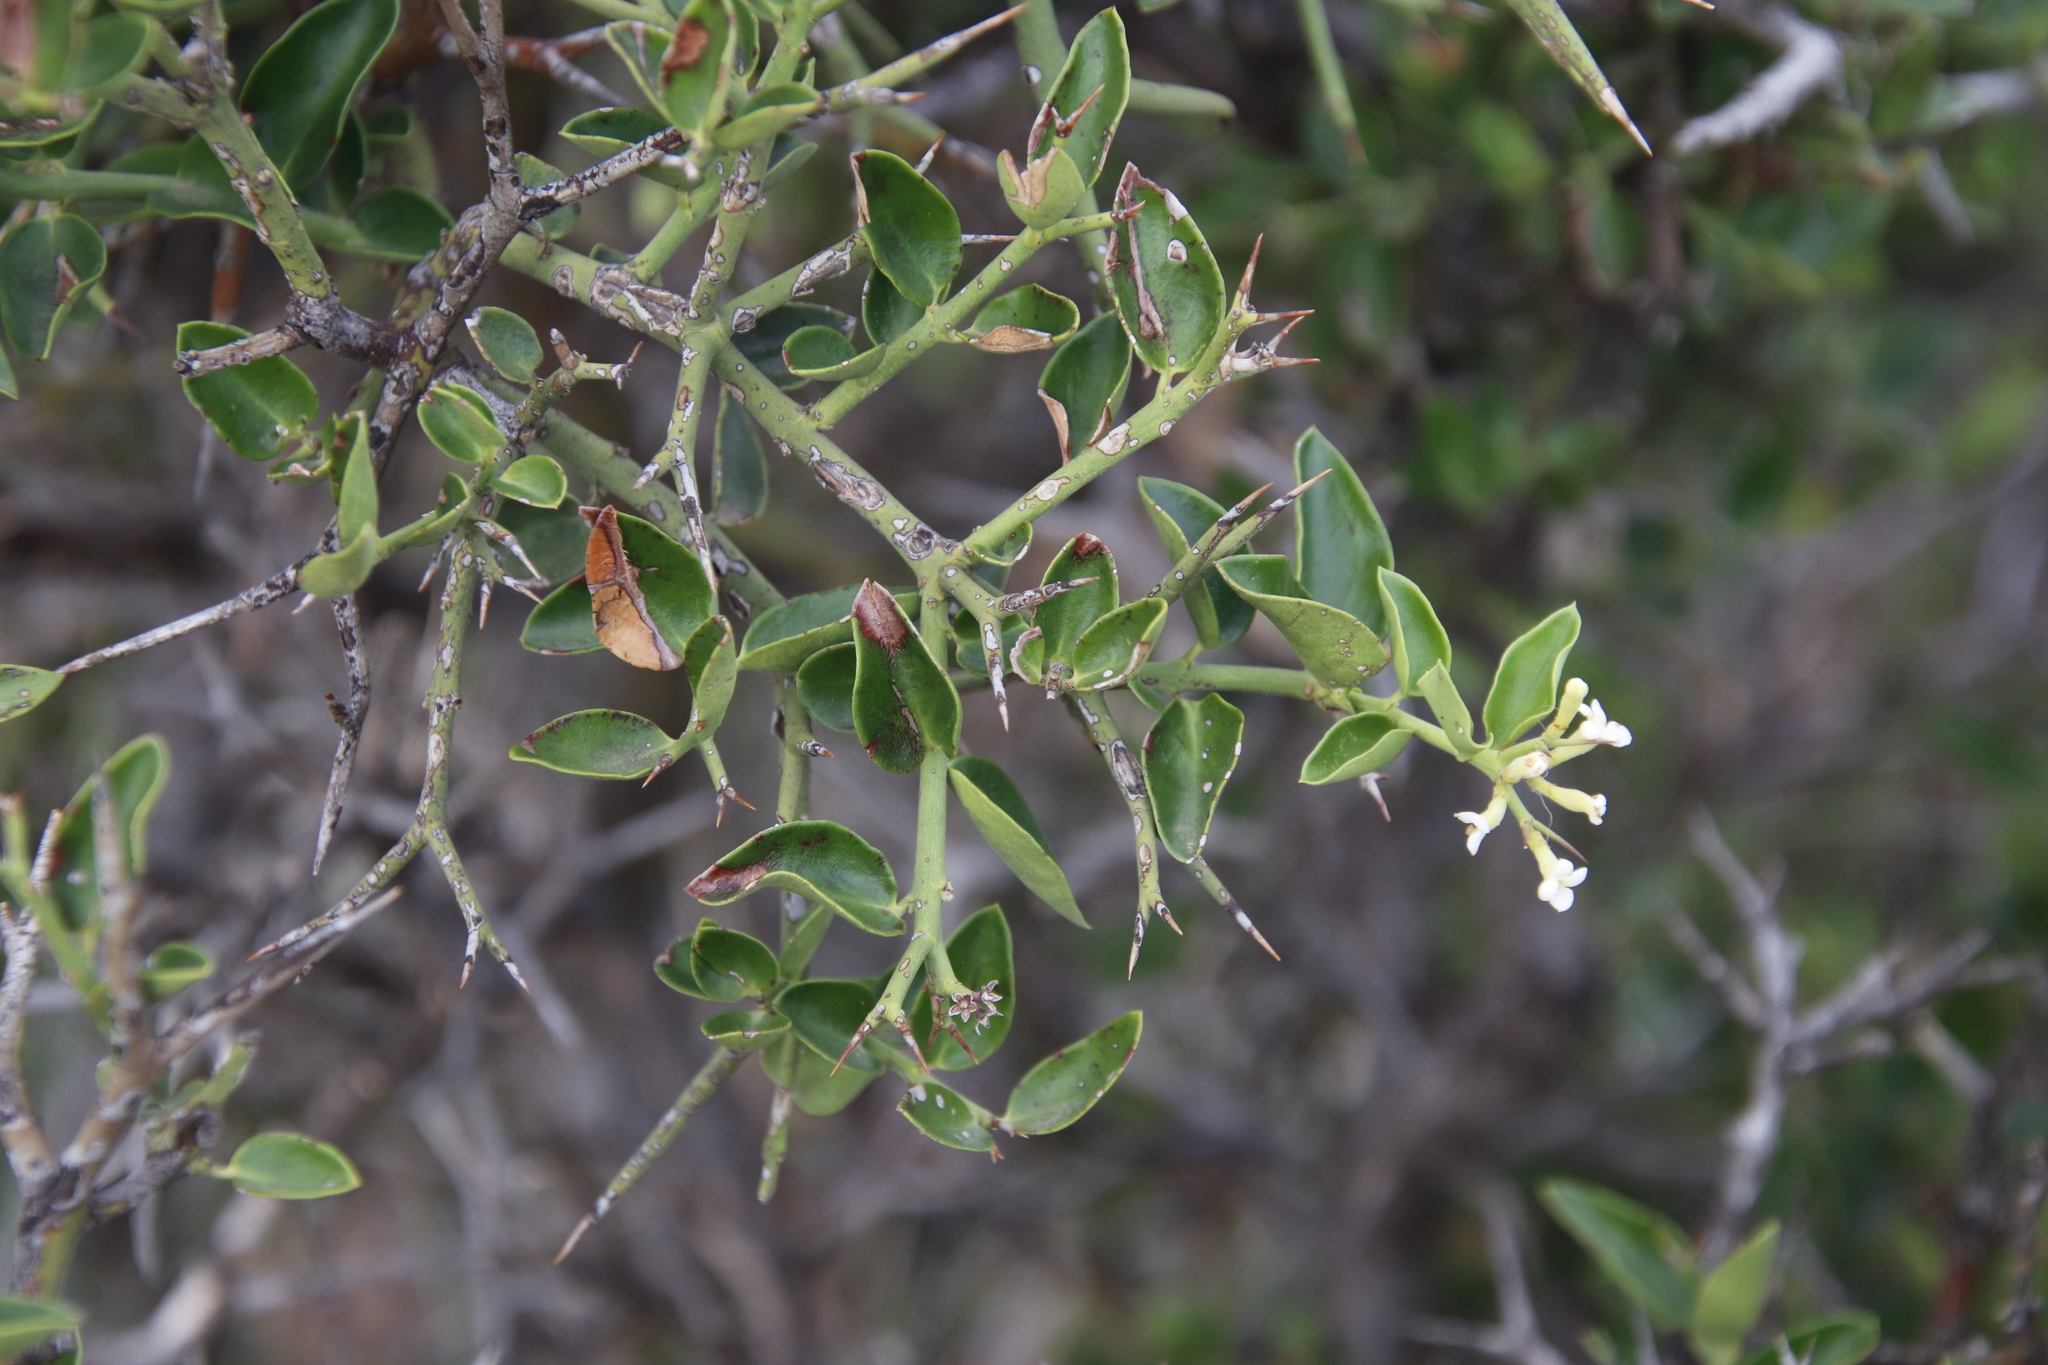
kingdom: Plantae
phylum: Tracheophyta
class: Magnoliopsida
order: Gentianales
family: Apocynaceae
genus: Carissa
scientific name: Carissa haematocarpa
